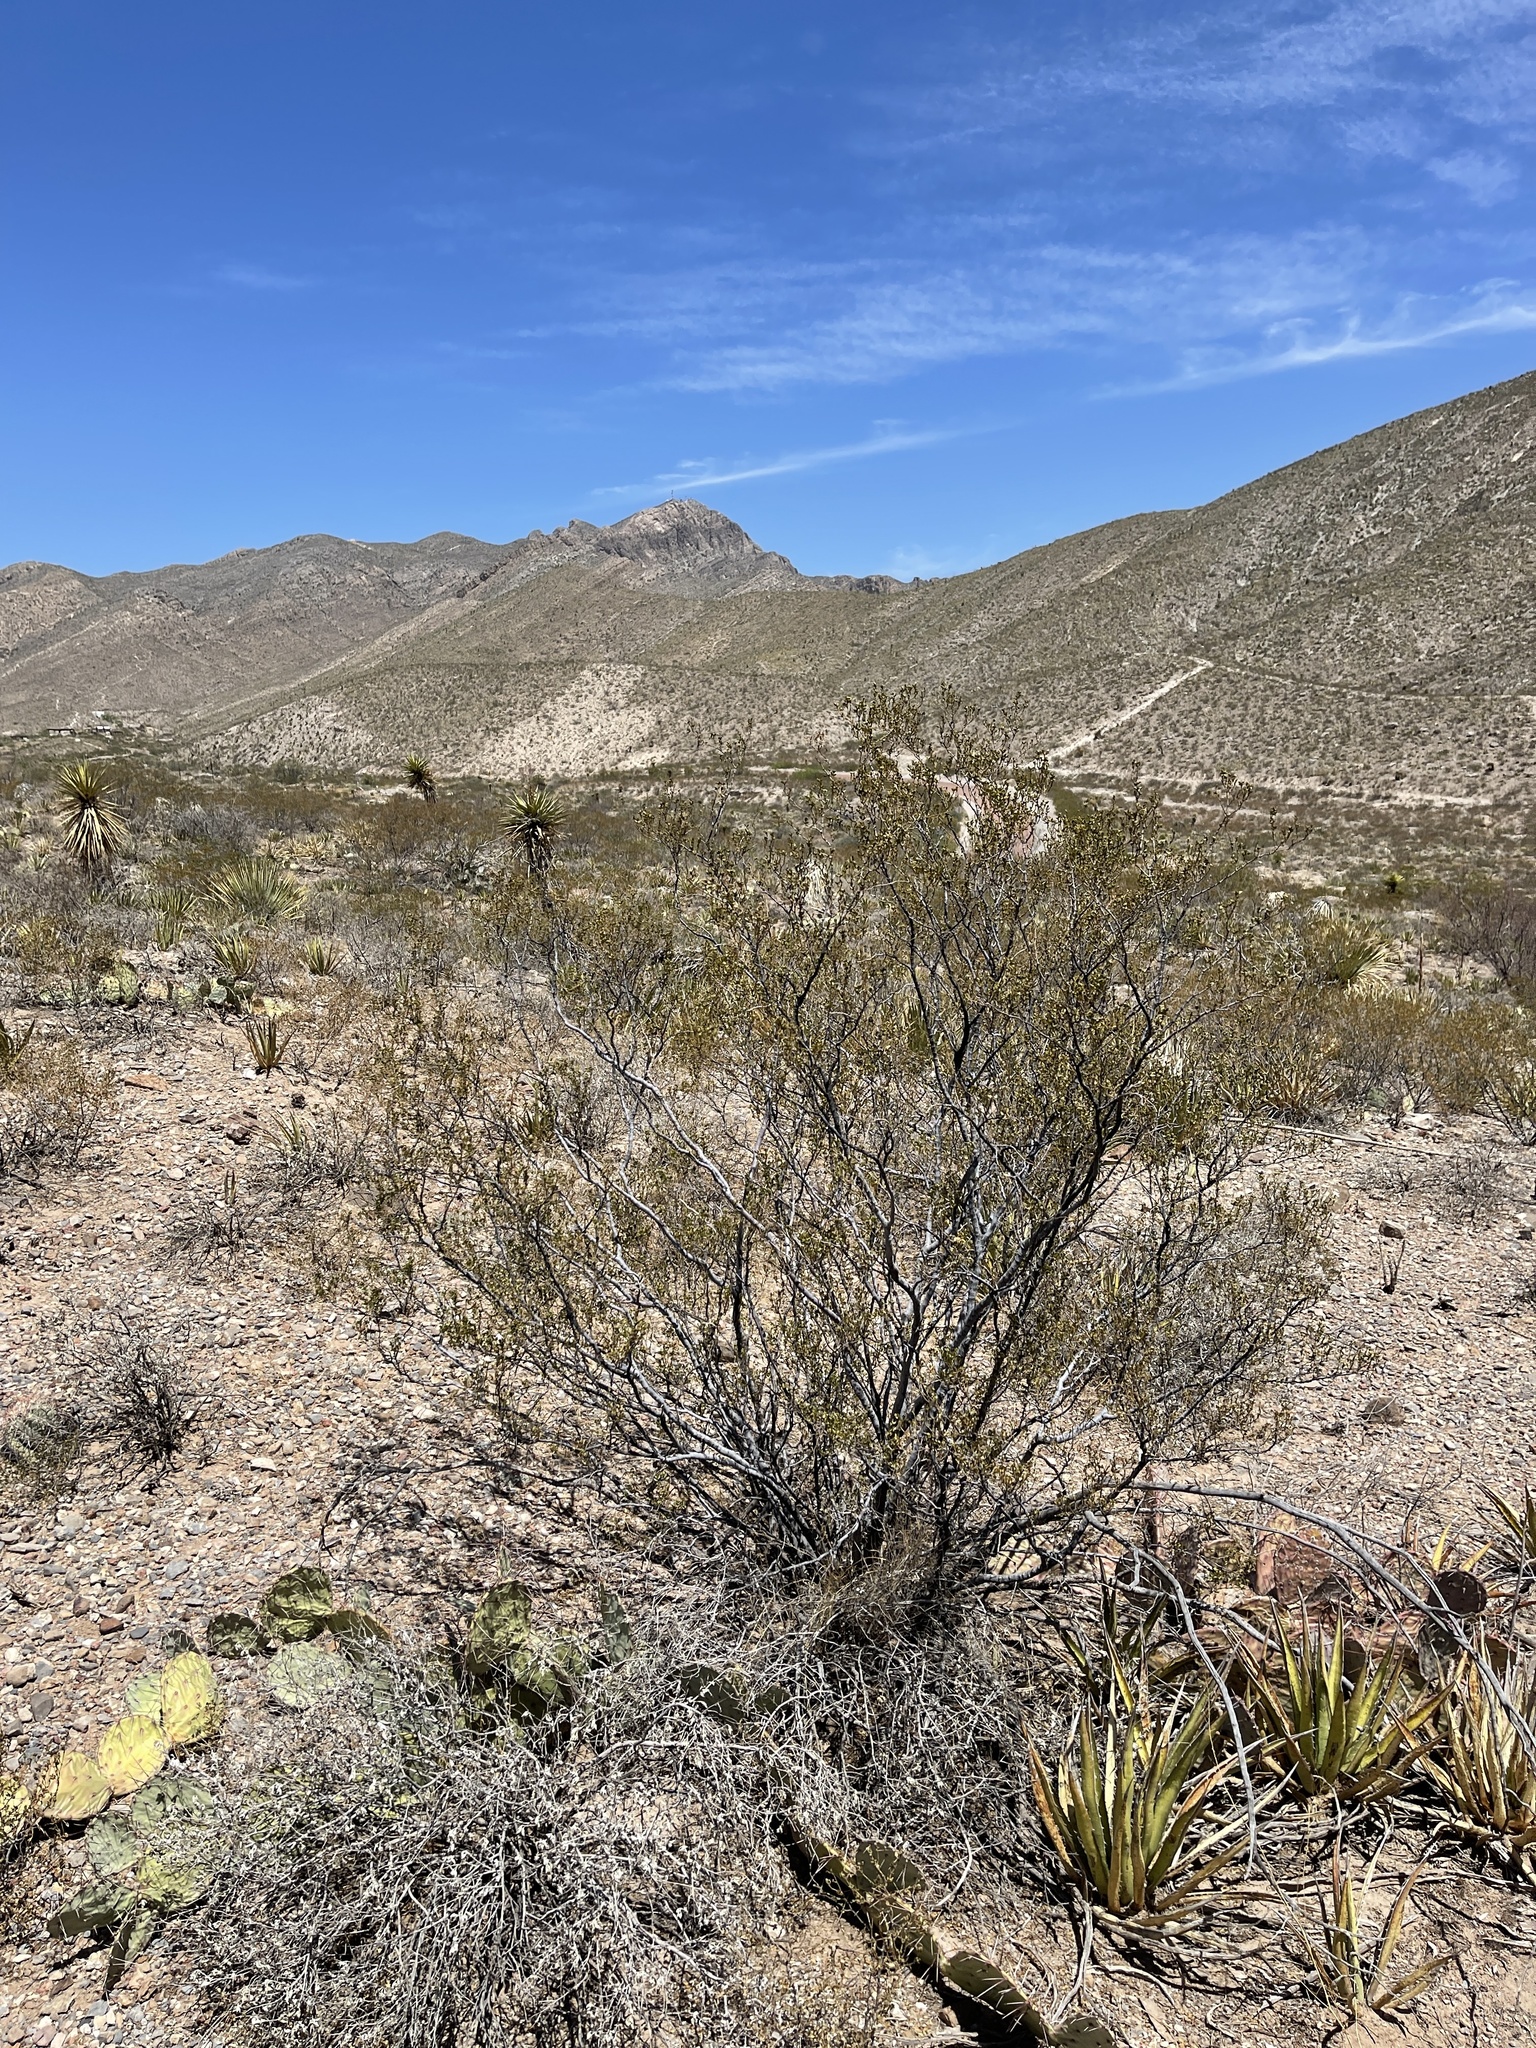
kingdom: Plantae
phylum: Tracheophyta
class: Magnoliopsida
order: Zygophyllales
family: Zygophyllaceae
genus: Larrea
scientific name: Larrea tridentata
